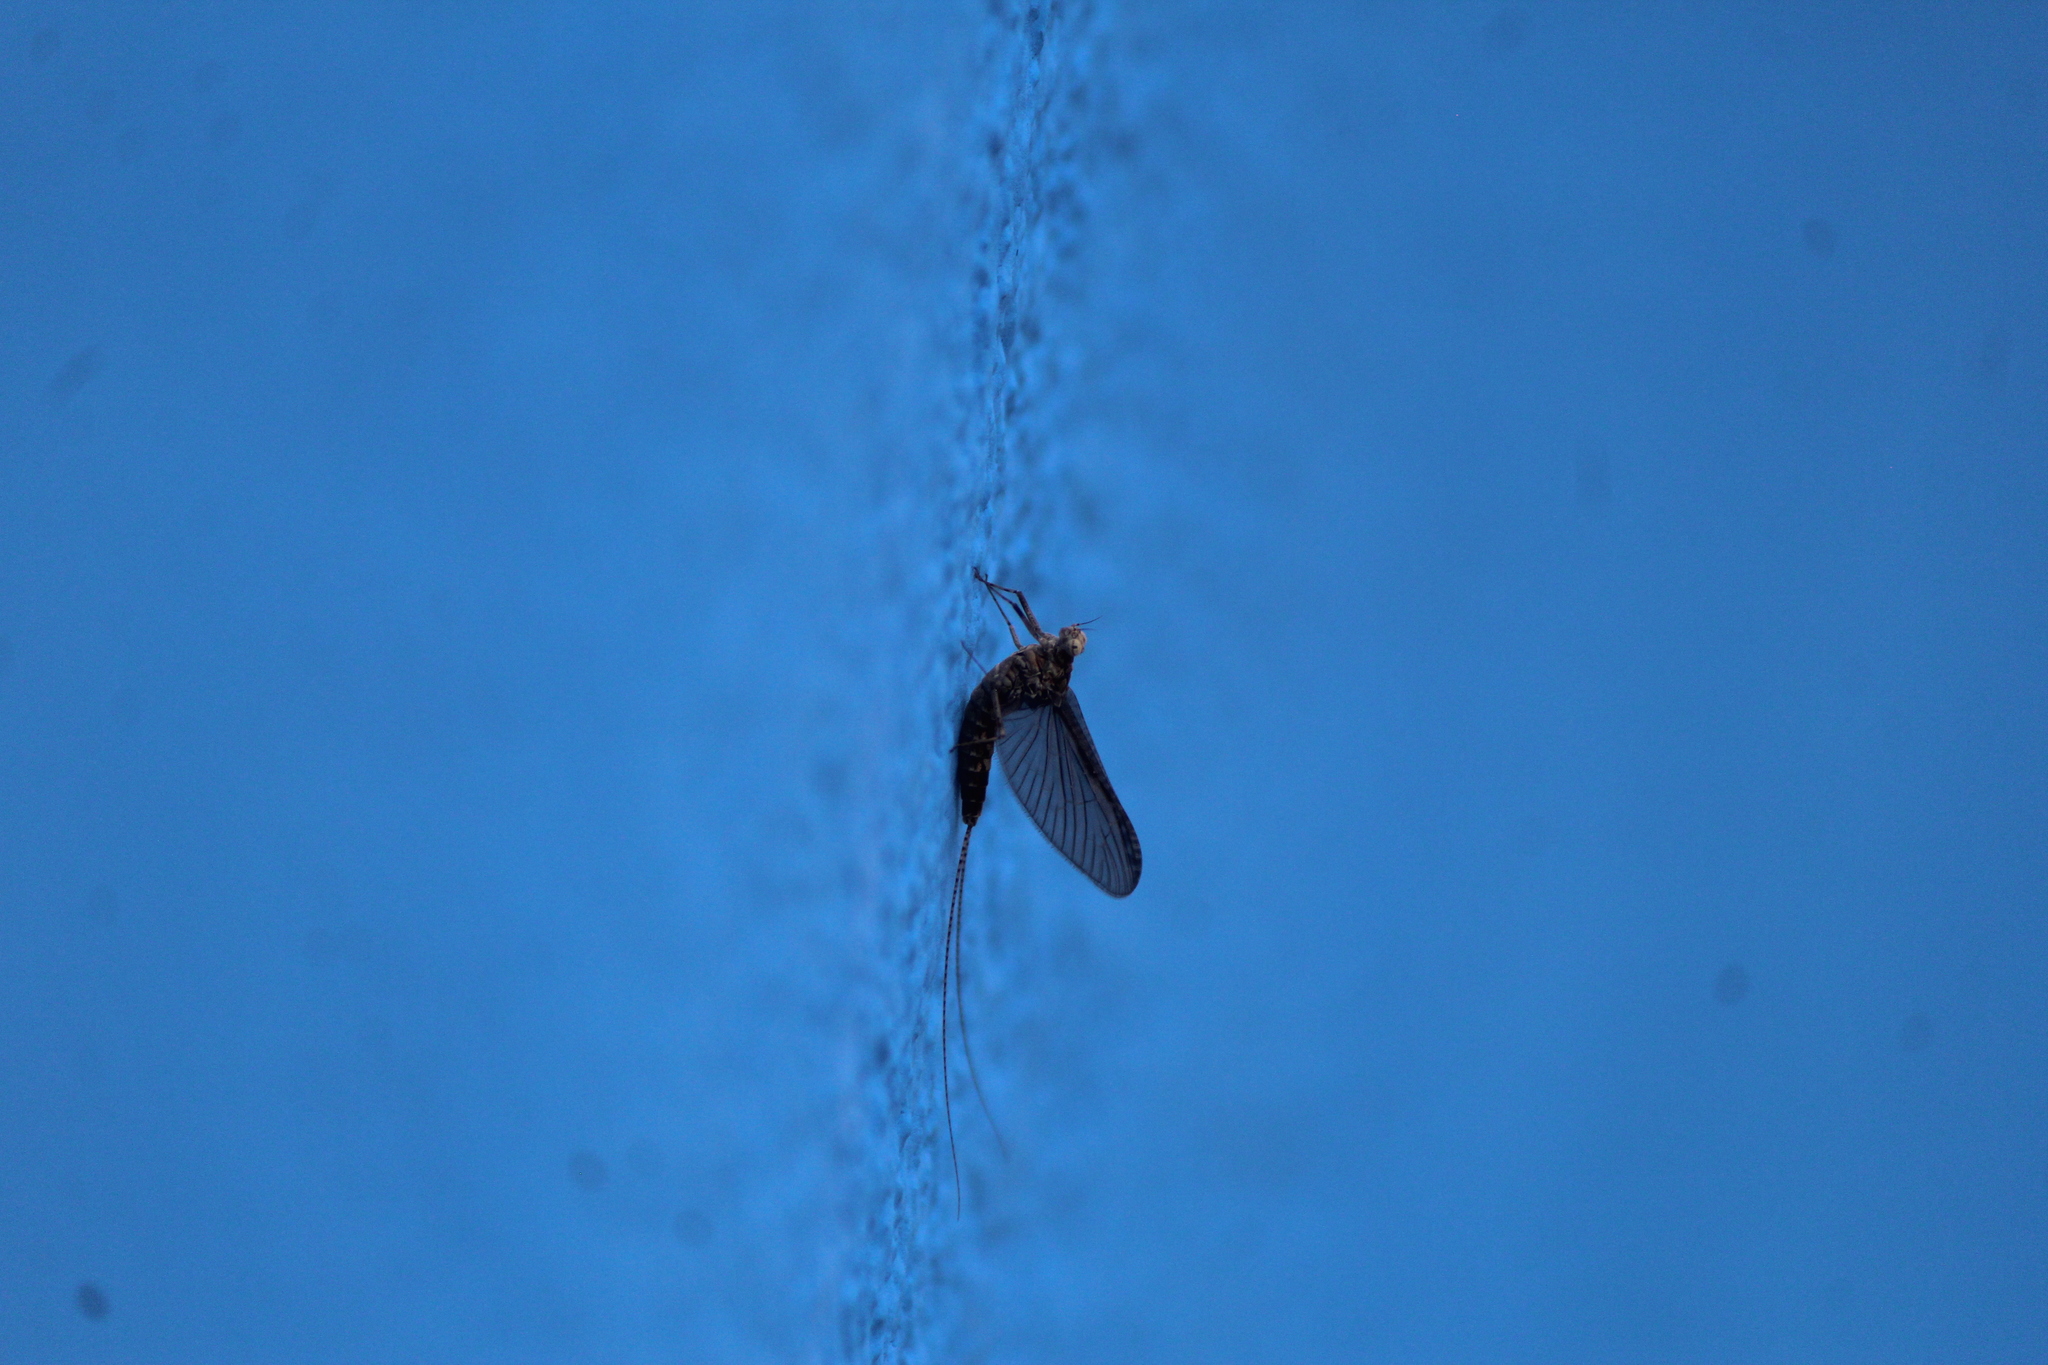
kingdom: Animalia
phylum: Arthropoda
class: Insecta
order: Ephemeroptera
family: Baetidae
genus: Callibaetis
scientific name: Callibaetis pictus
